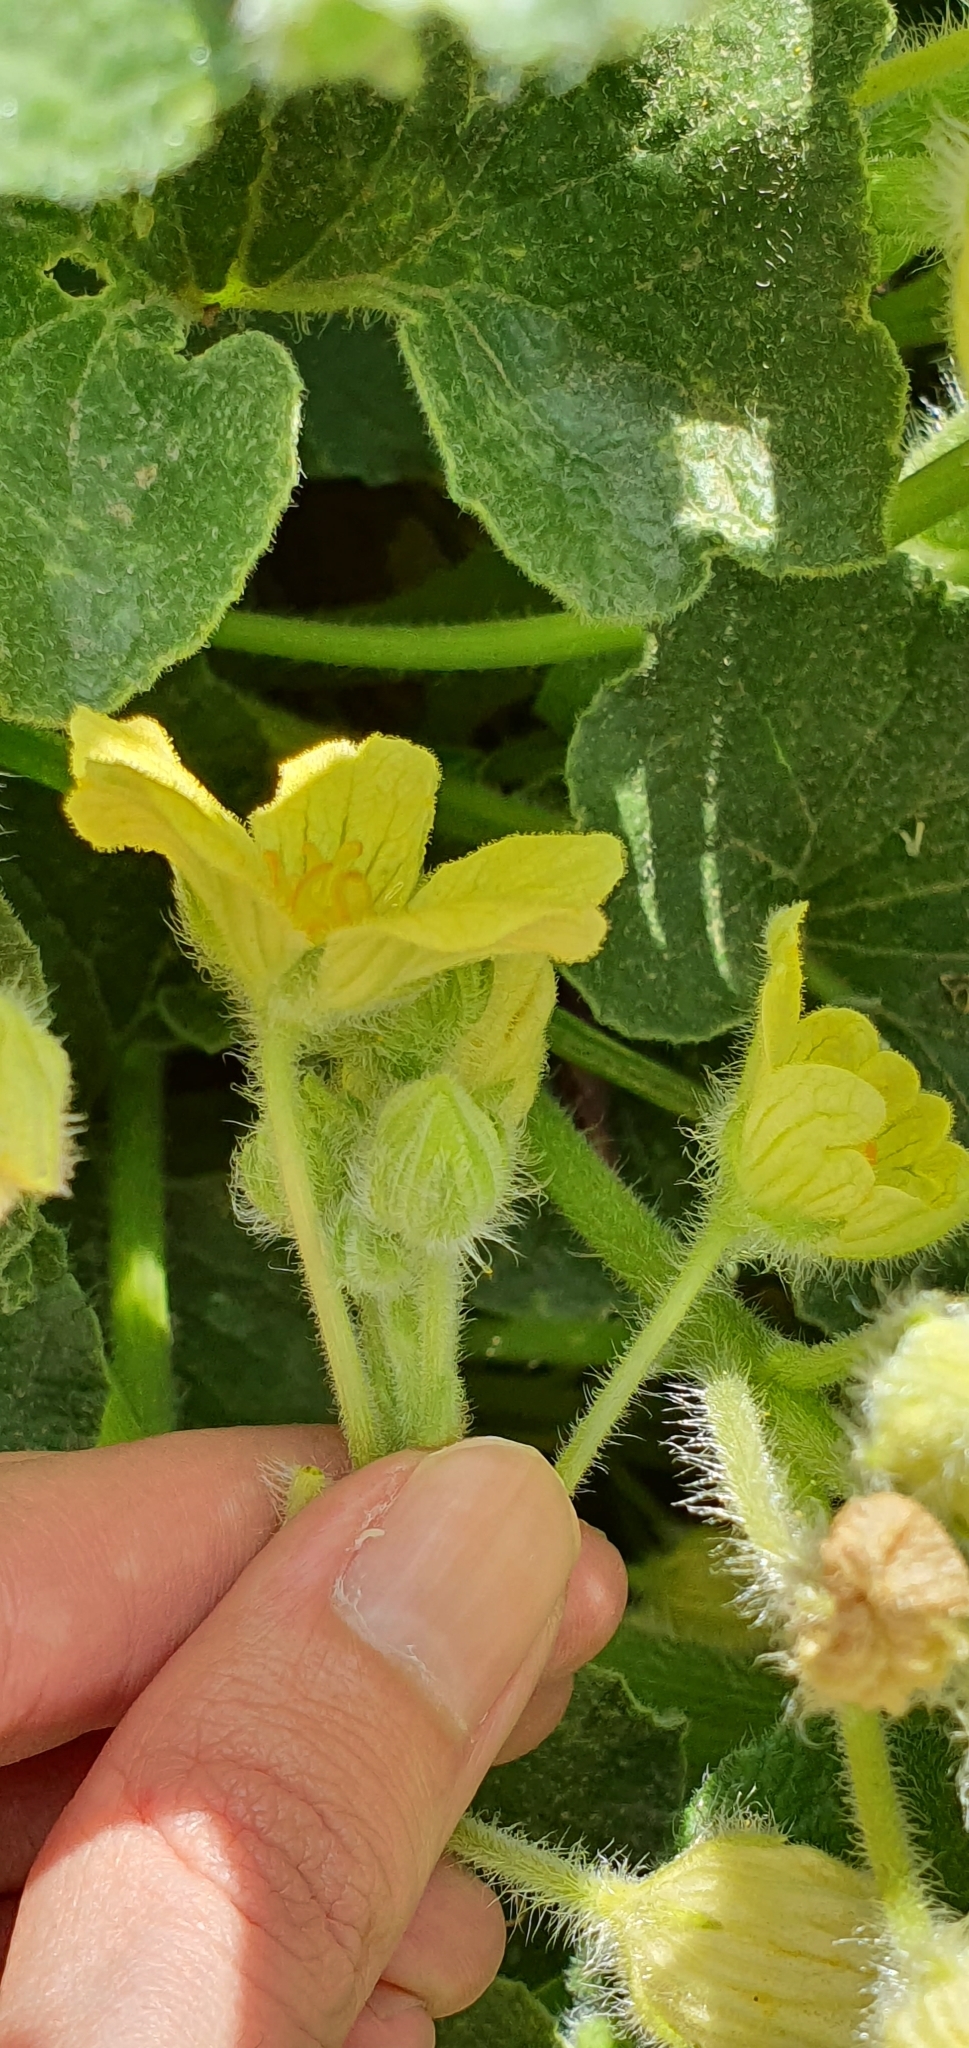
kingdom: Plantae
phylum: Tracheophyta
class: Magnoliopsida
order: Cucurbitales
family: Cucurbitaceae
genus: Ecballium
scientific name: Ecballium elaterium
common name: Squirting cucumber
